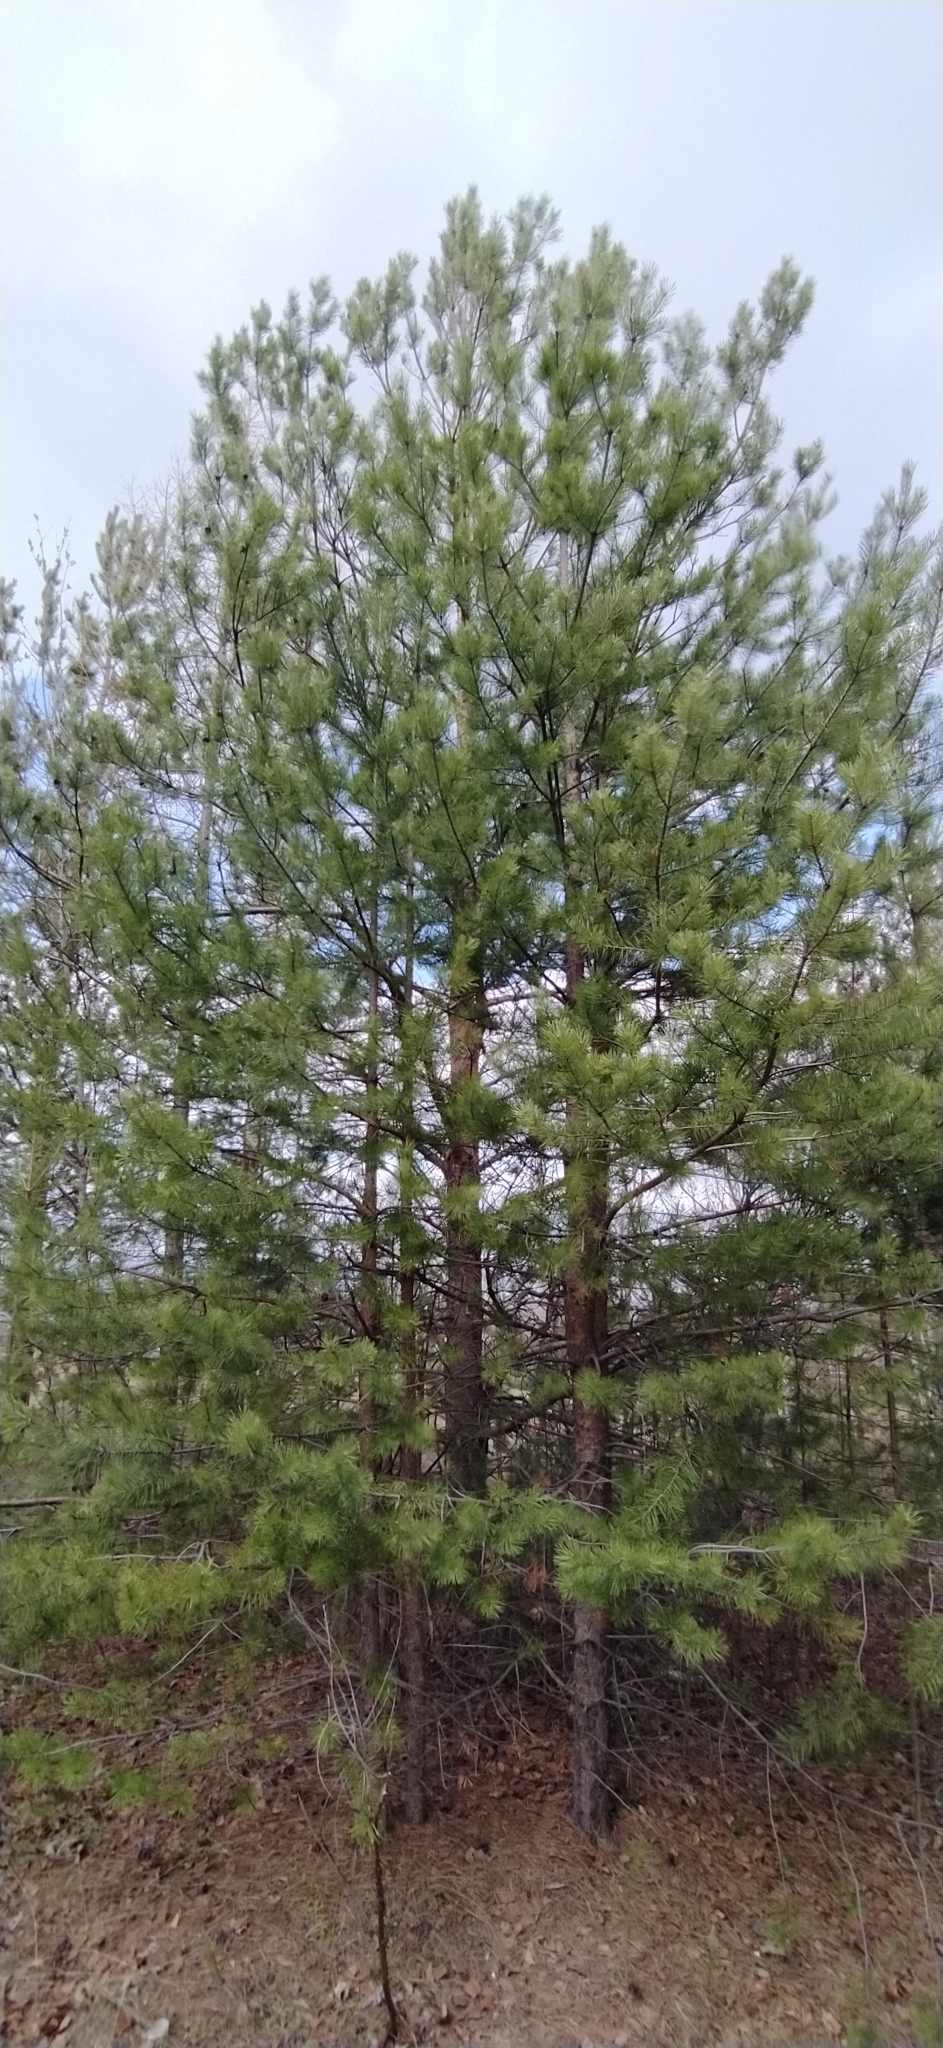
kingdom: Plantae
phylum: Tracheophyta
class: Pinopsida
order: Pinales
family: Pinaceae
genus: Pinus
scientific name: Pinus sylvestris
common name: Scots pine
